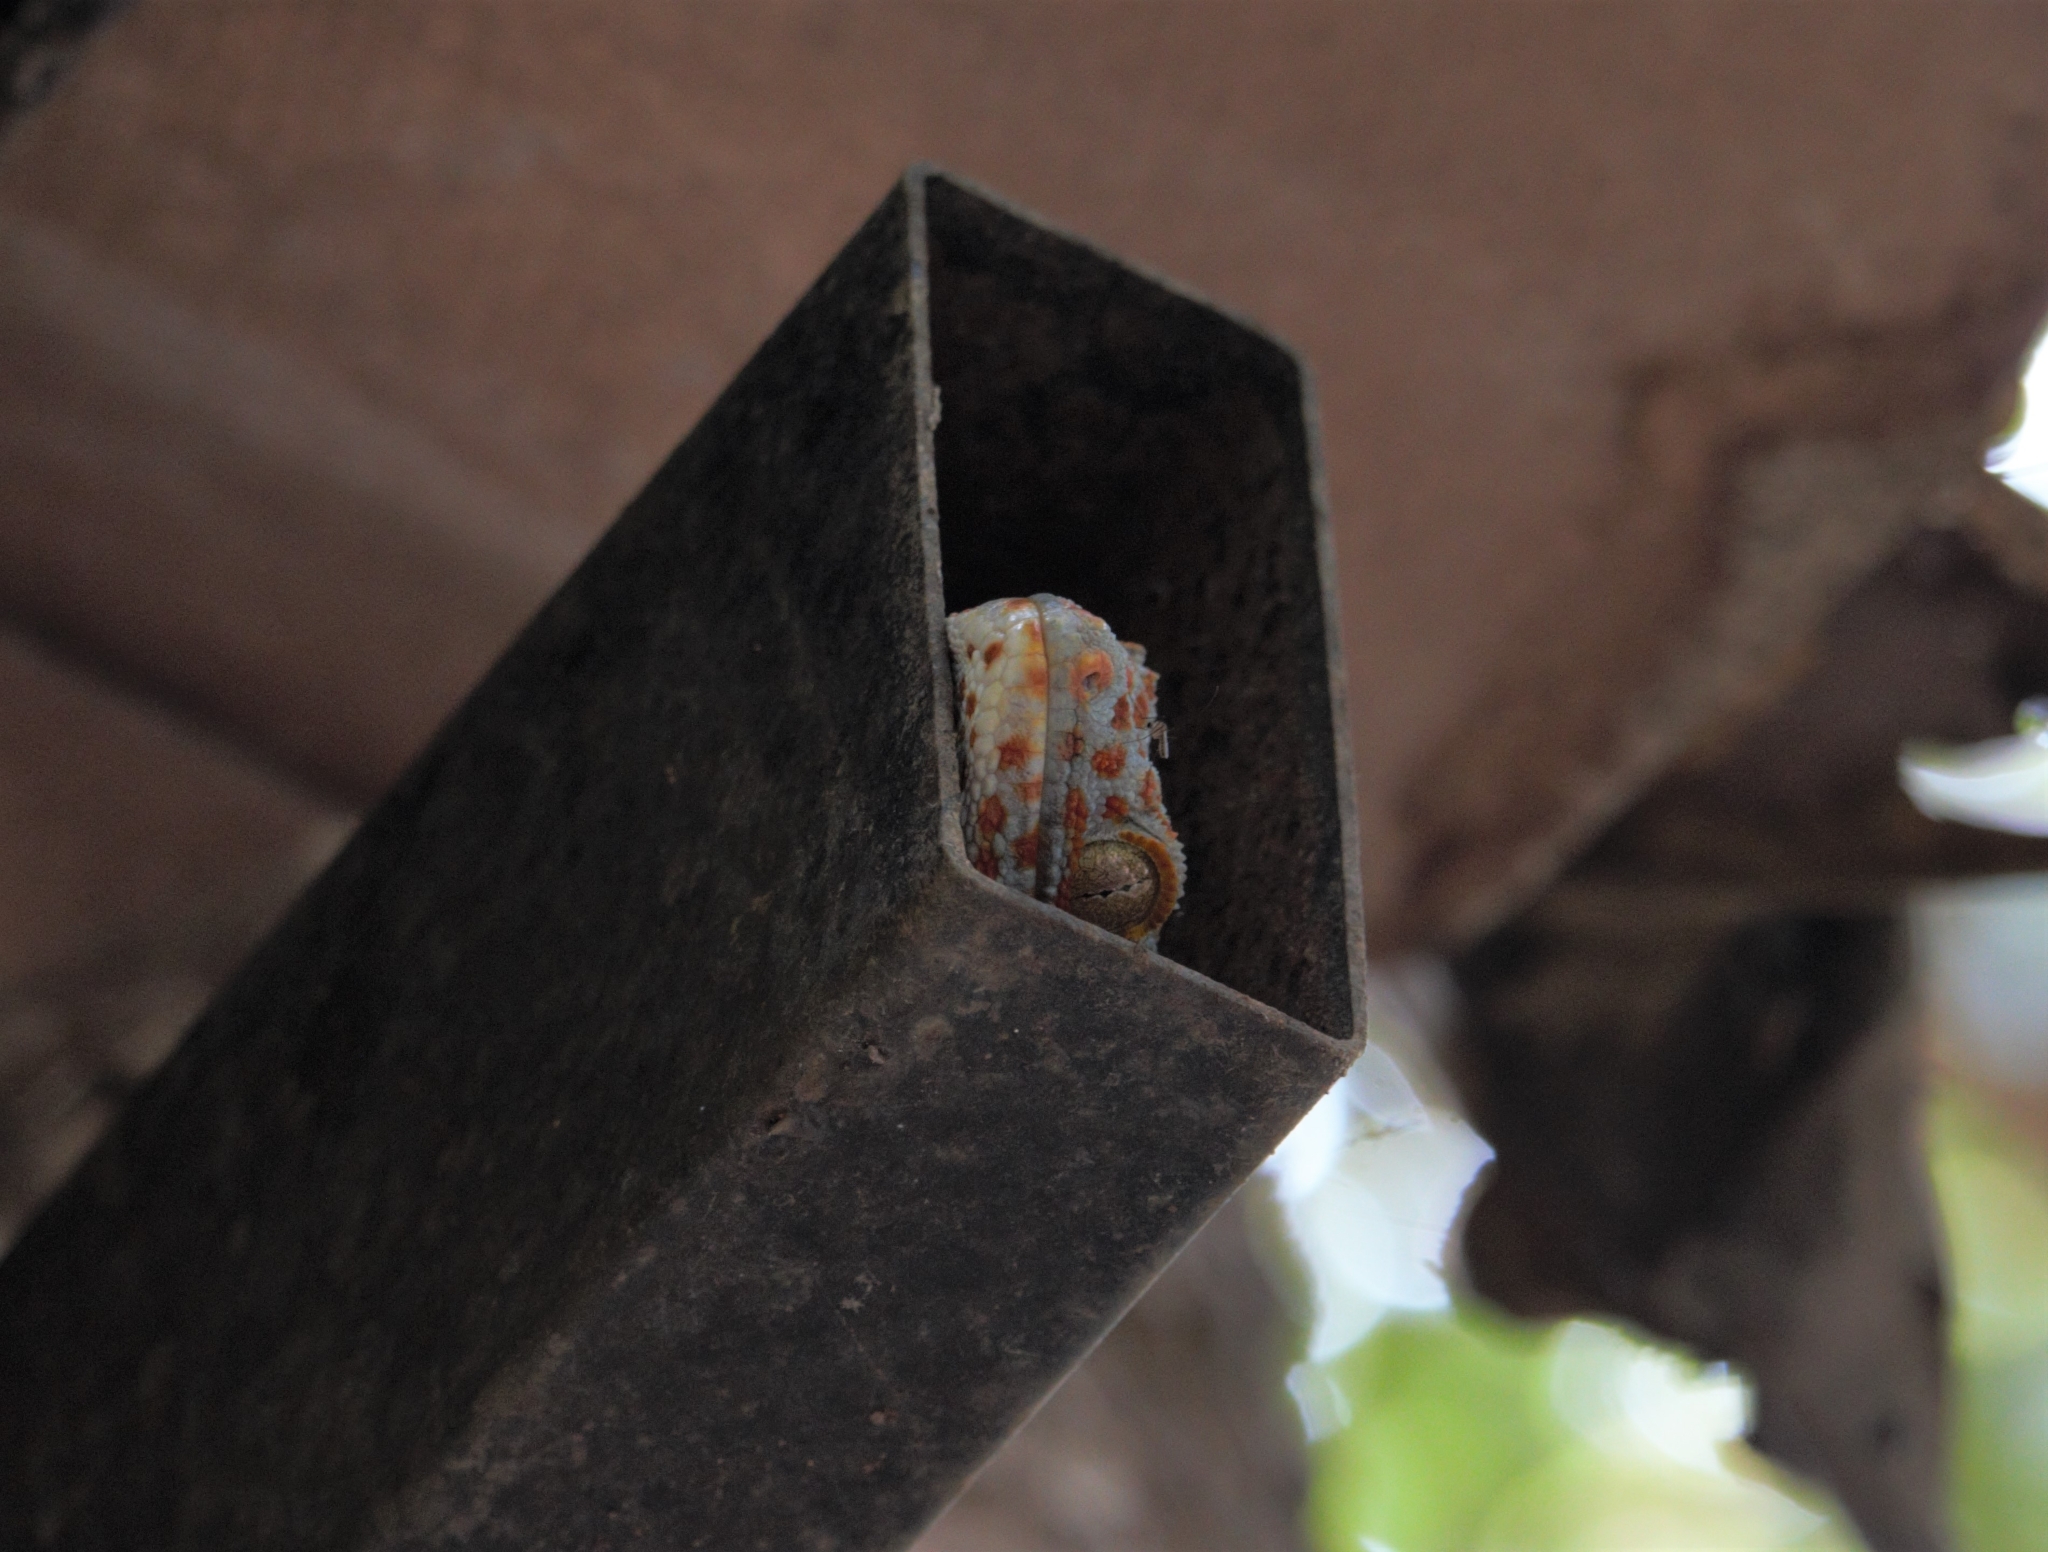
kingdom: Animalia
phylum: Chordata
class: Squamata
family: Gekkonidae
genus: Gekko
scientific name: Gekko gecko
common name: Tokay gecko
